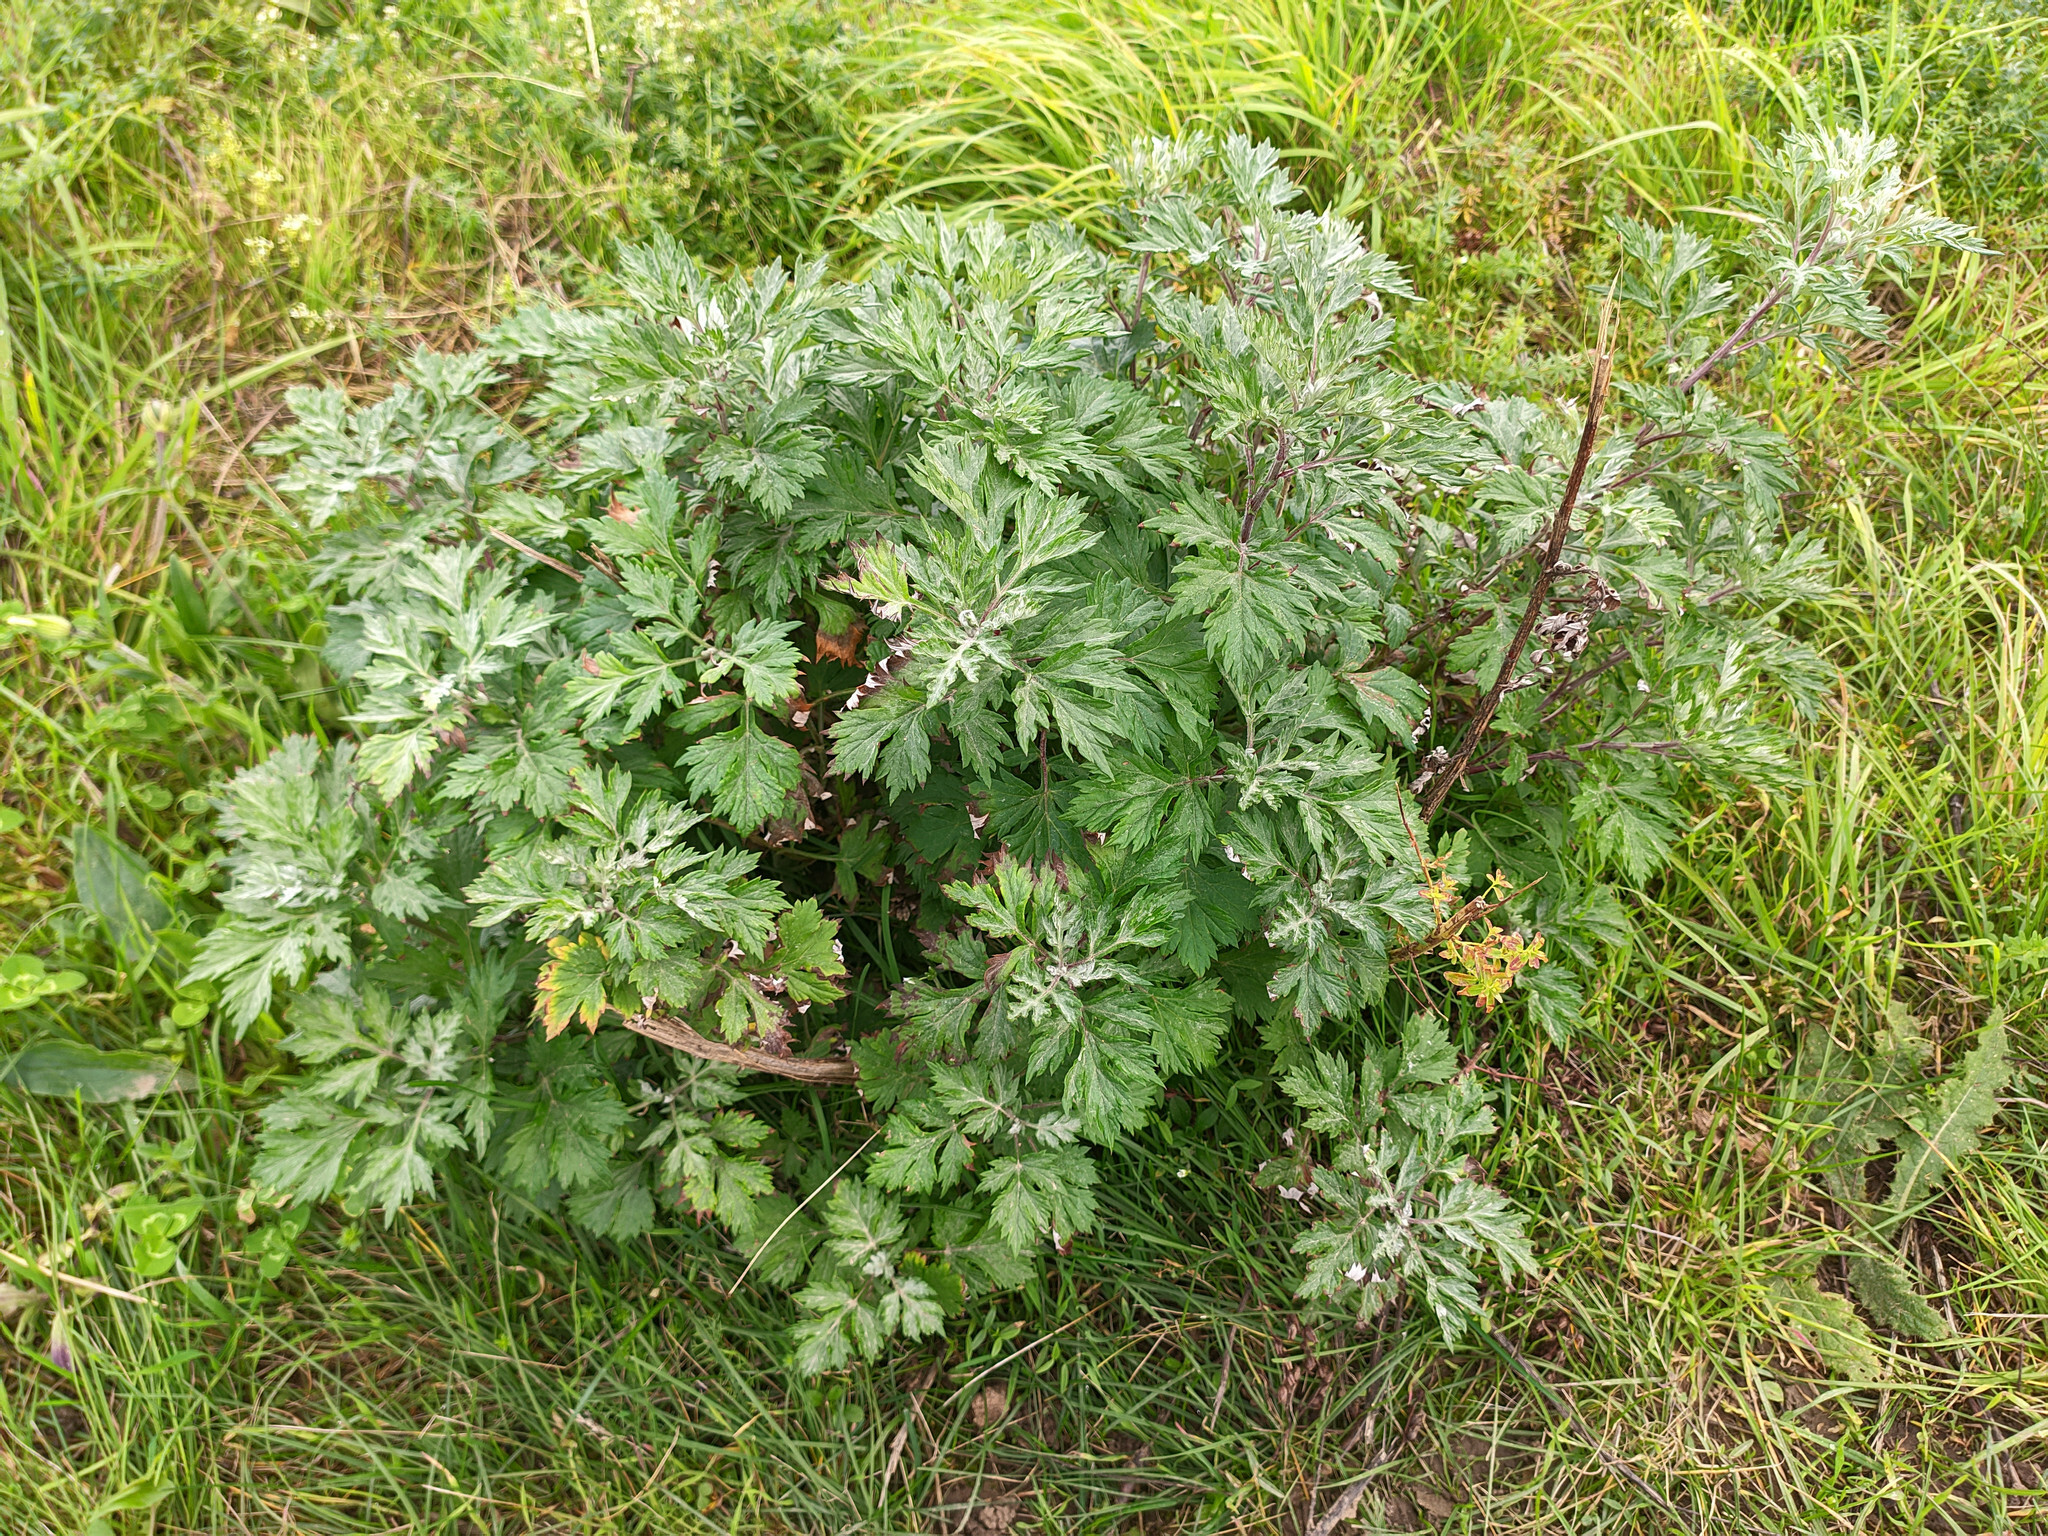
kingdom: Plantae
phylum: Tracheophyta
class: Magnoliopsida
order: Asterales
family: Asteraceae
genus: Artemisia
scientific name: Artemisia vulgaris
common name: Mugwort
